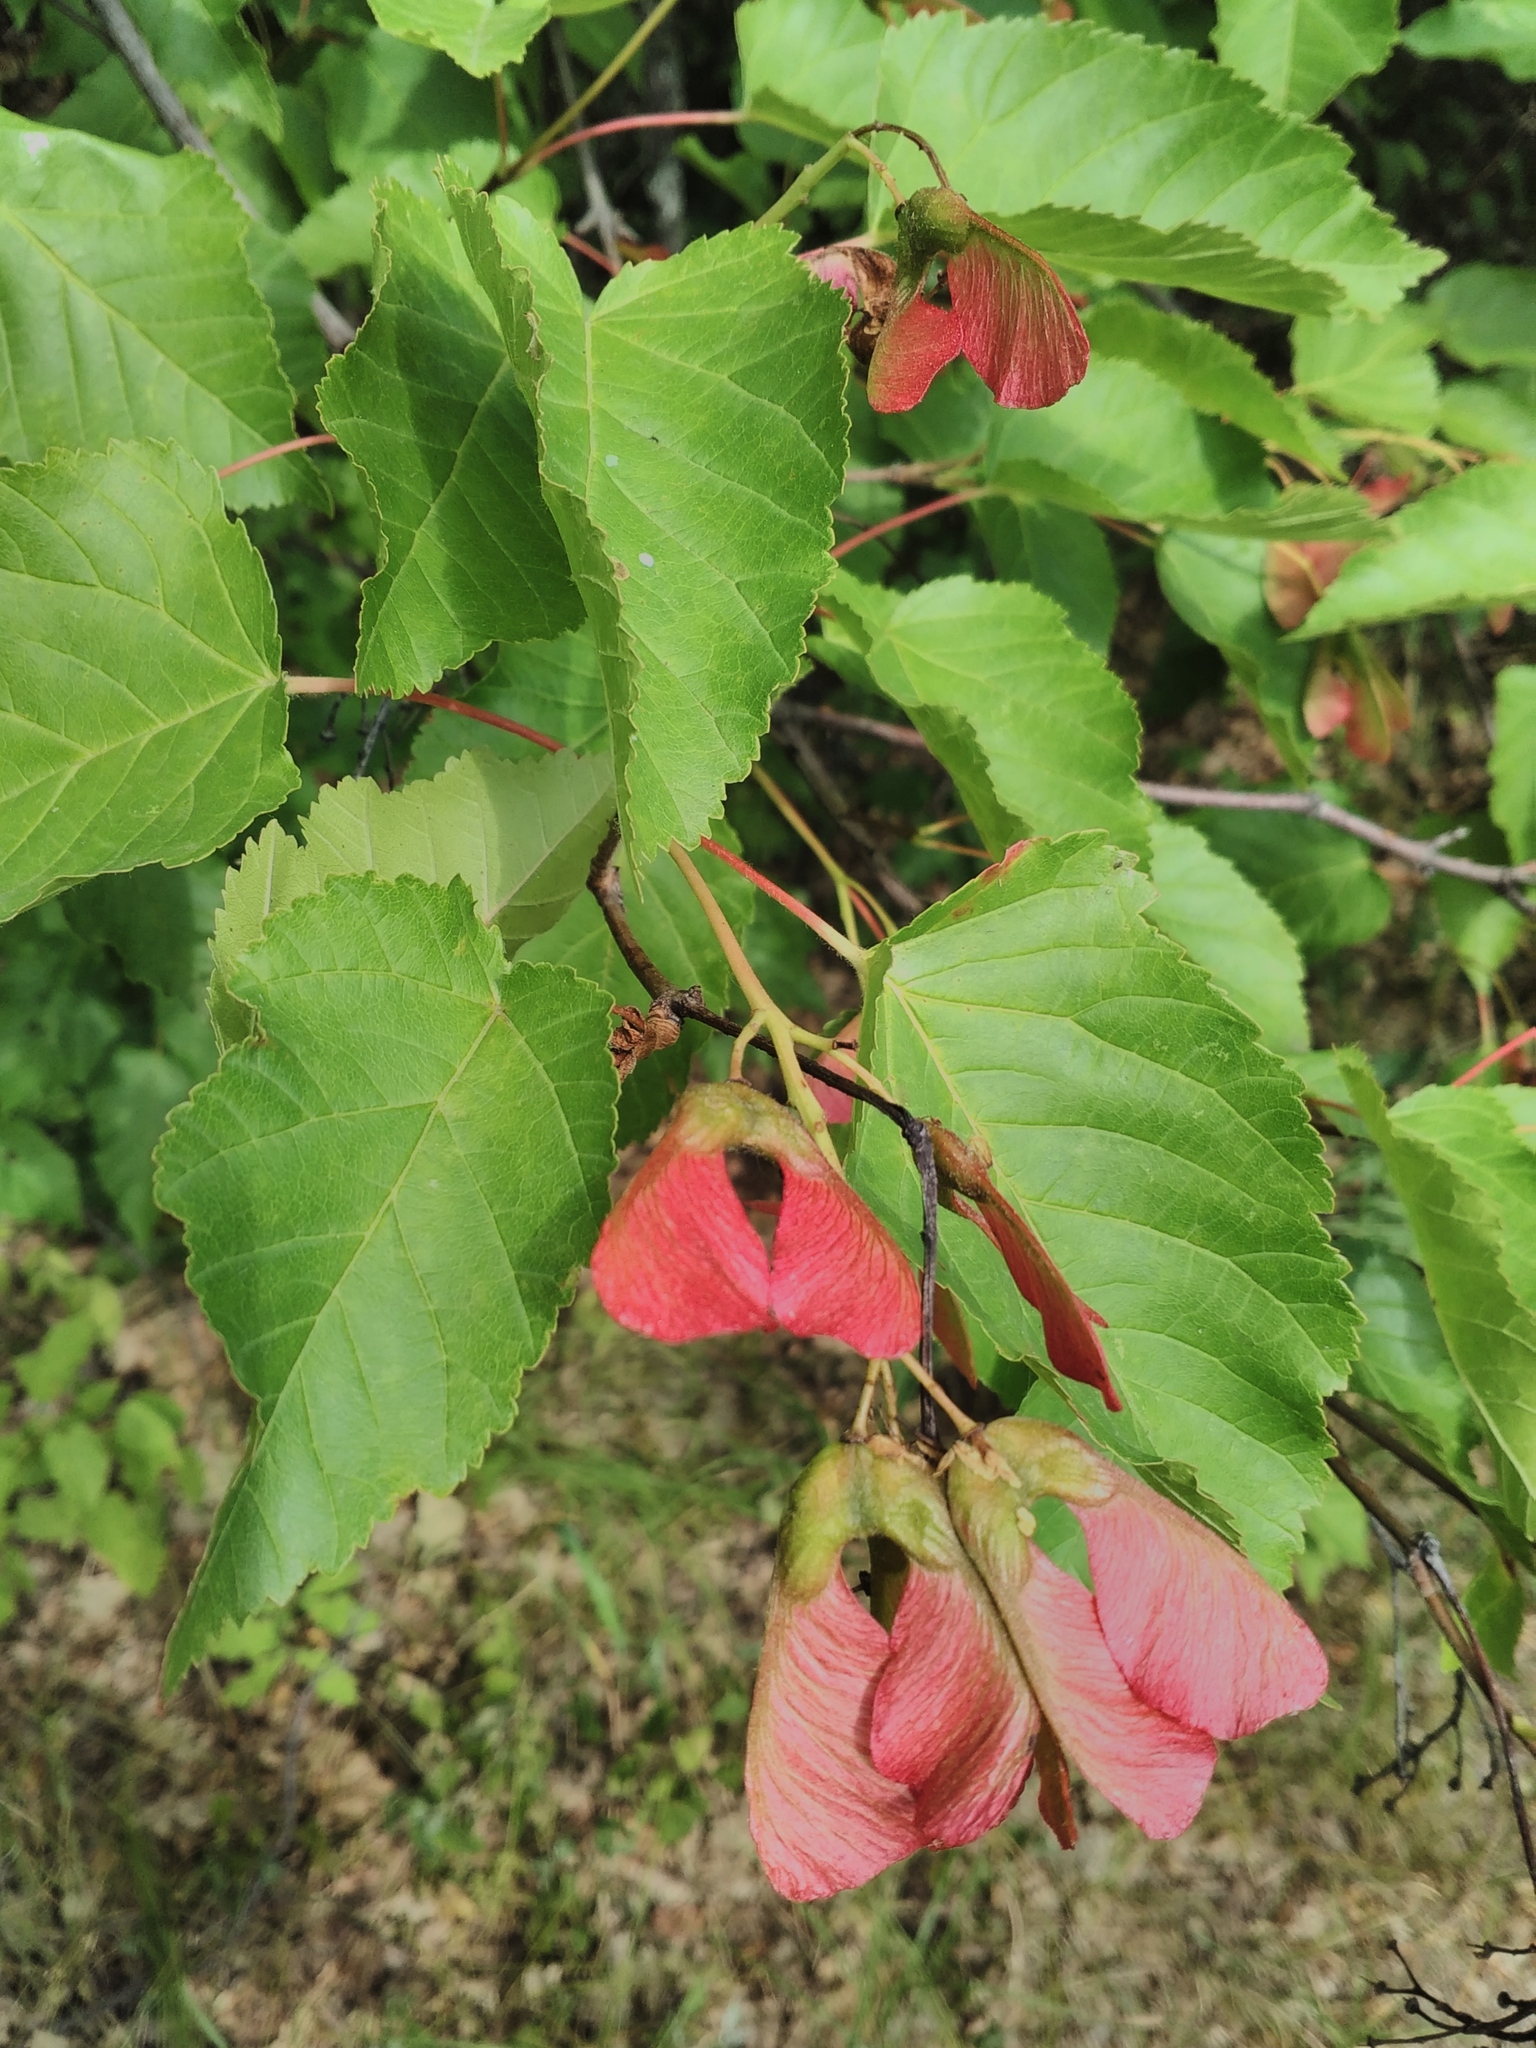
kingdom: Plantae
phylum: Tracheophyta
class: Magnoliopsida
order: Sapindales
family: Sapindaceae
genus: Acer
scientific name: Acer tataricum
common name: Tartar maple
